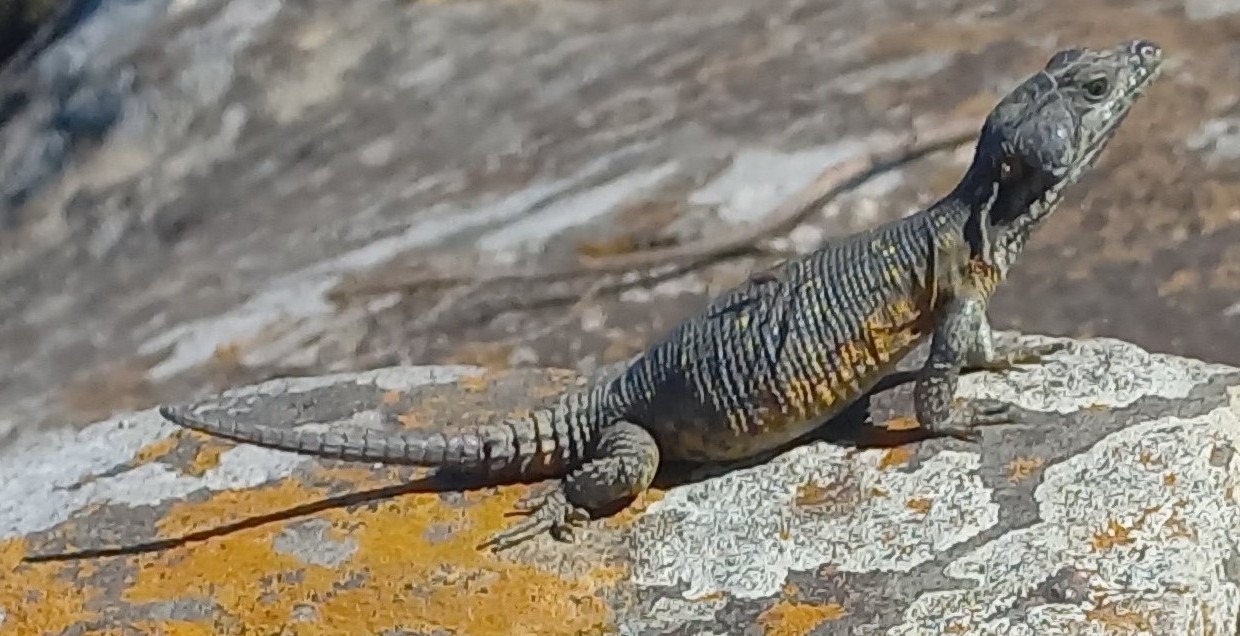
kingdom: Animalia
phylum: Chordata
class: Squamata
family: Cordylidae
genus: Pseudocordylus
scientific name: Pseudocordylus microlepidotus
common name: Cape crag lizard
